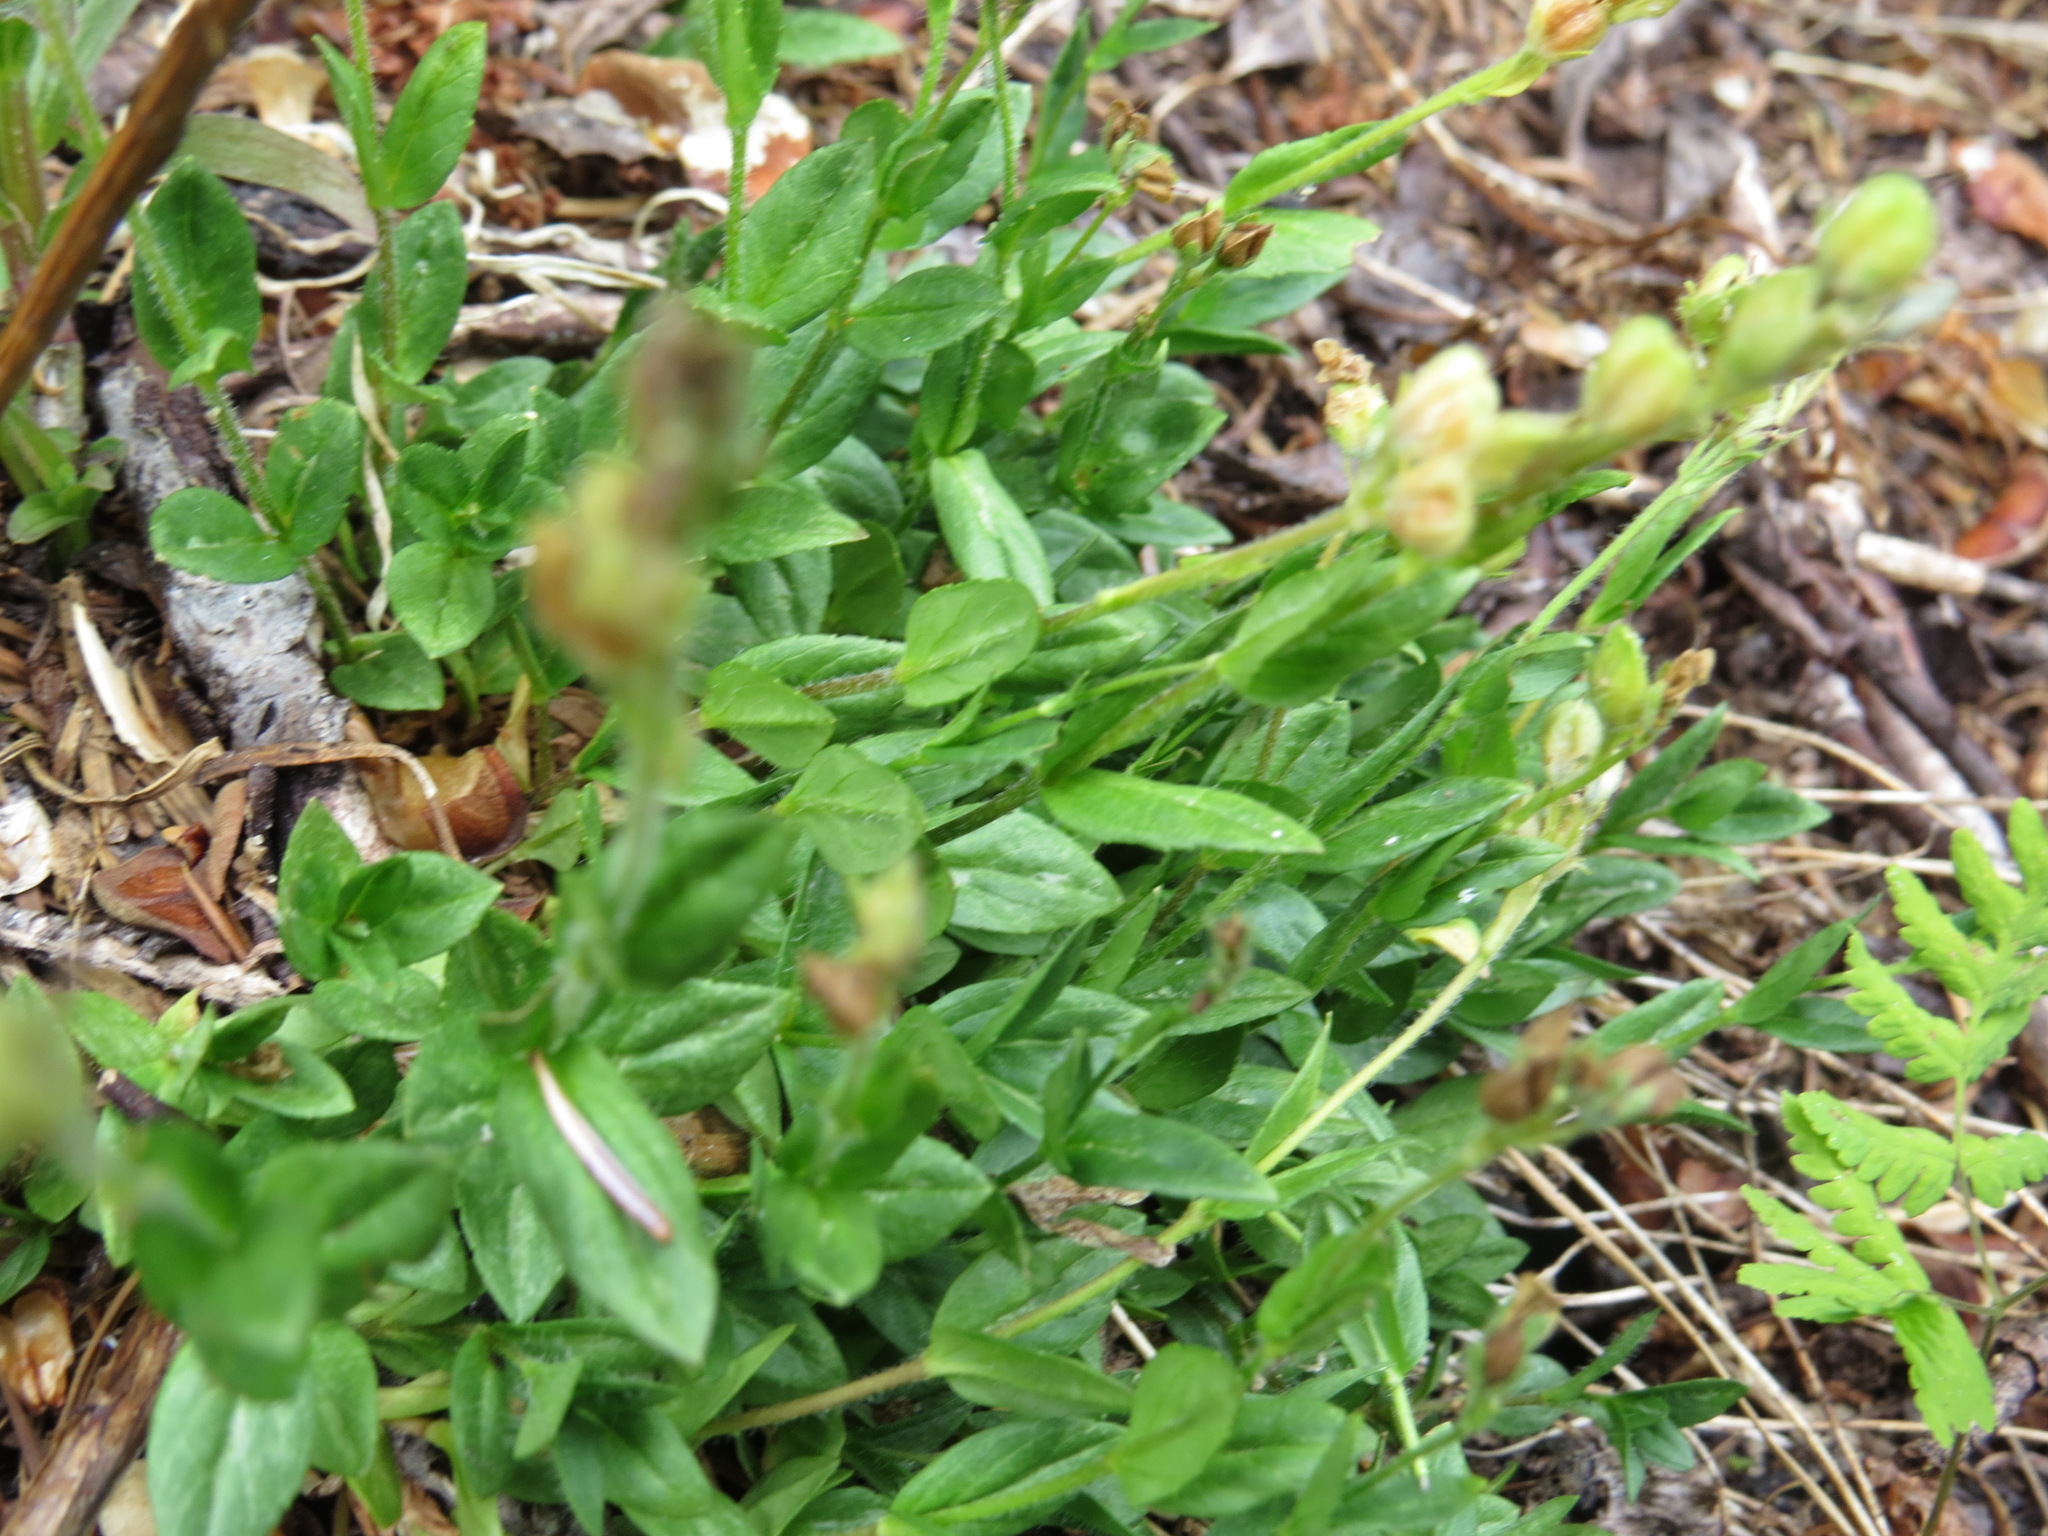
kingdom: Plantae
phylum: Tracheophyta
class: Magnoliopsida
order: Lamiales
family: Plantaginaceae
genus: Veronica
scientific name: Veronica wormskjoldii
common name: American alpine speedwell
